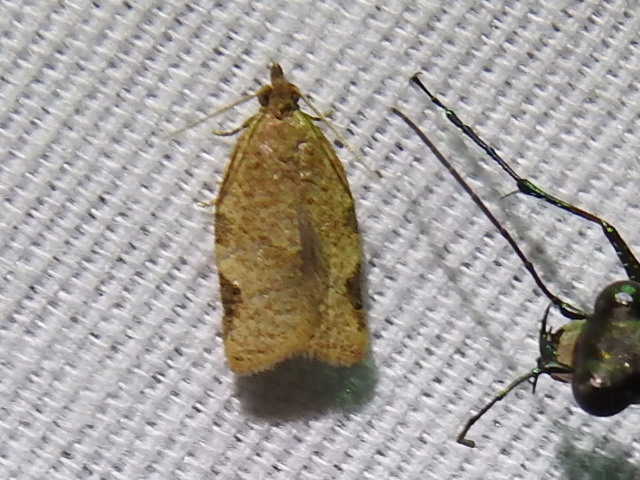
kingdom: Animalia
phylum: Arthropoda
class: Insecta
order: Lepidoptera
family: Tortricidae
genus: Clepsis
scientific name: Clepsis virescana
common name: Greenish apple moth
